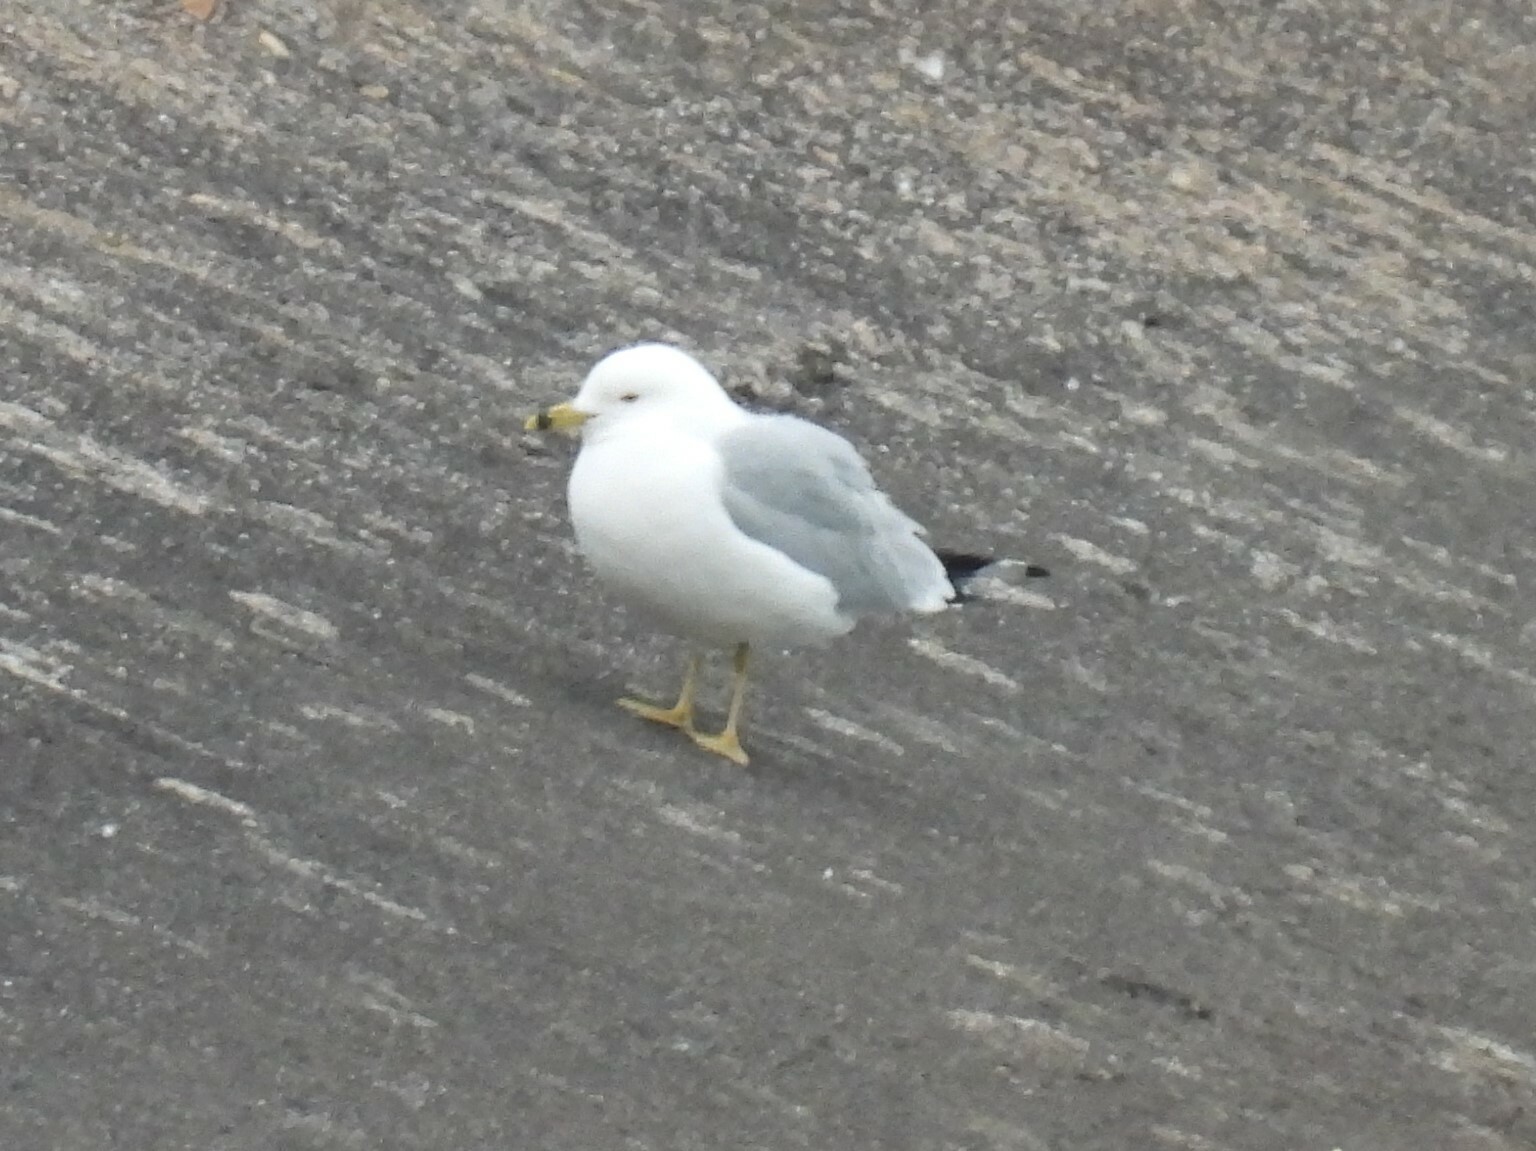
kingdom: Animalia
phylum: Chordata
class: Aves
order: Charadriiformes
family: Laridae
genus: Larus
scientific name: Larus delawarensis
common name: Ring-billed gull
